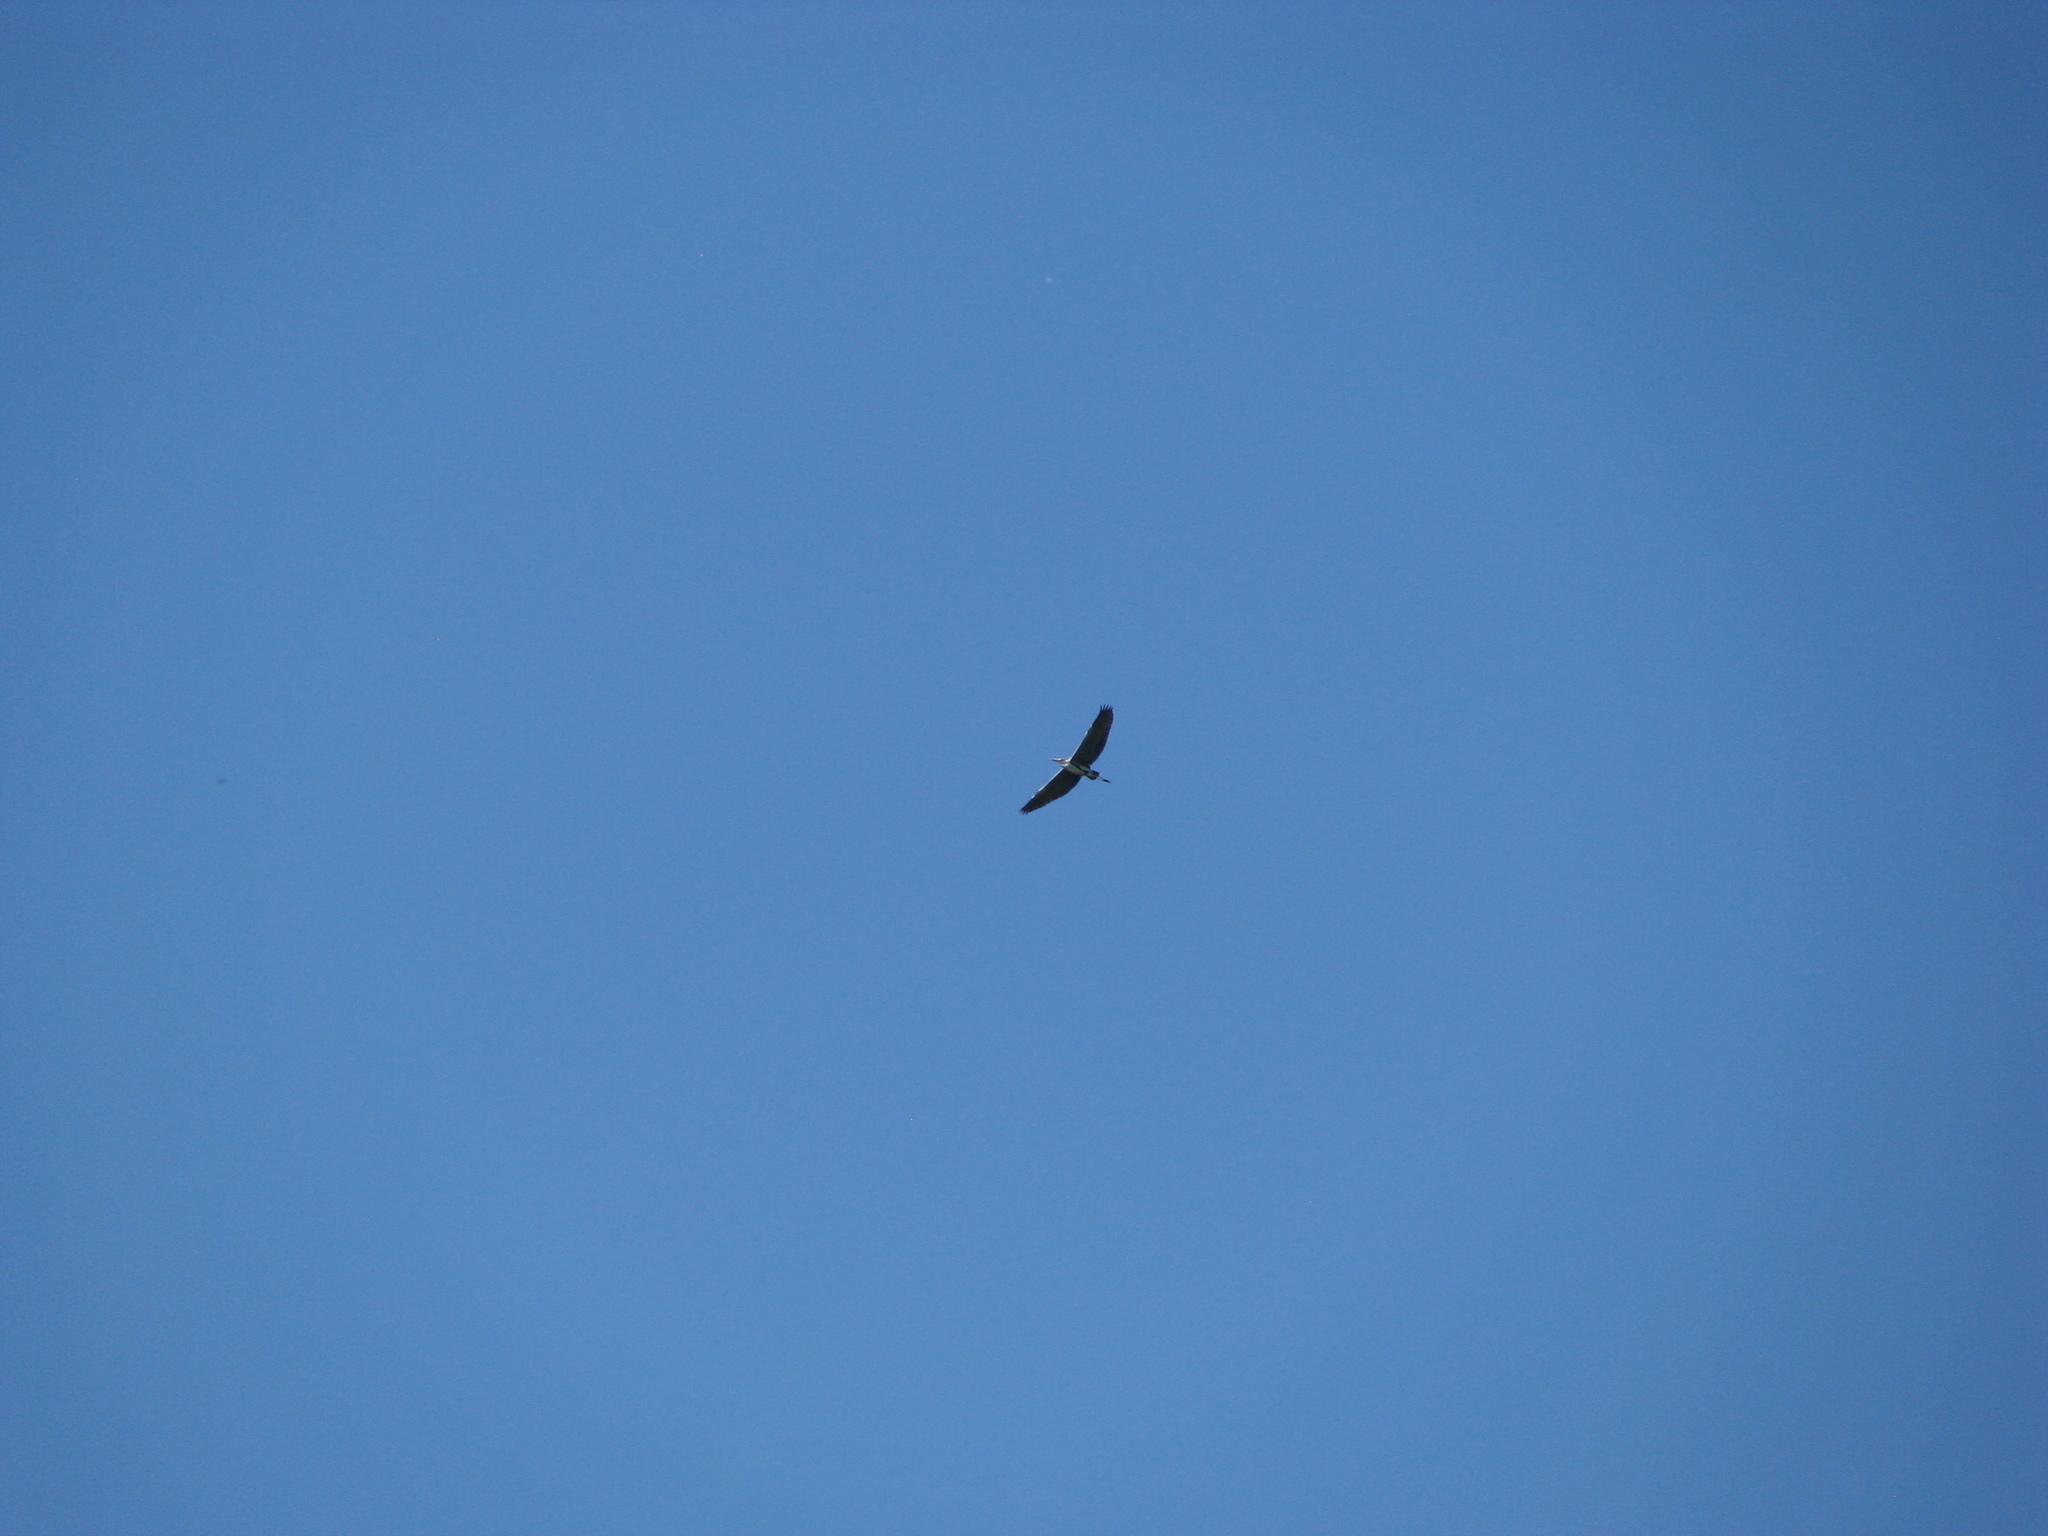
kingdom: Animalia
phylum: Chordata
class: Aves
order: Pelecaniformes
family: Ardeidae
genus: Ardea
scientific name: Ardea cinerea
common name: Grey heron
